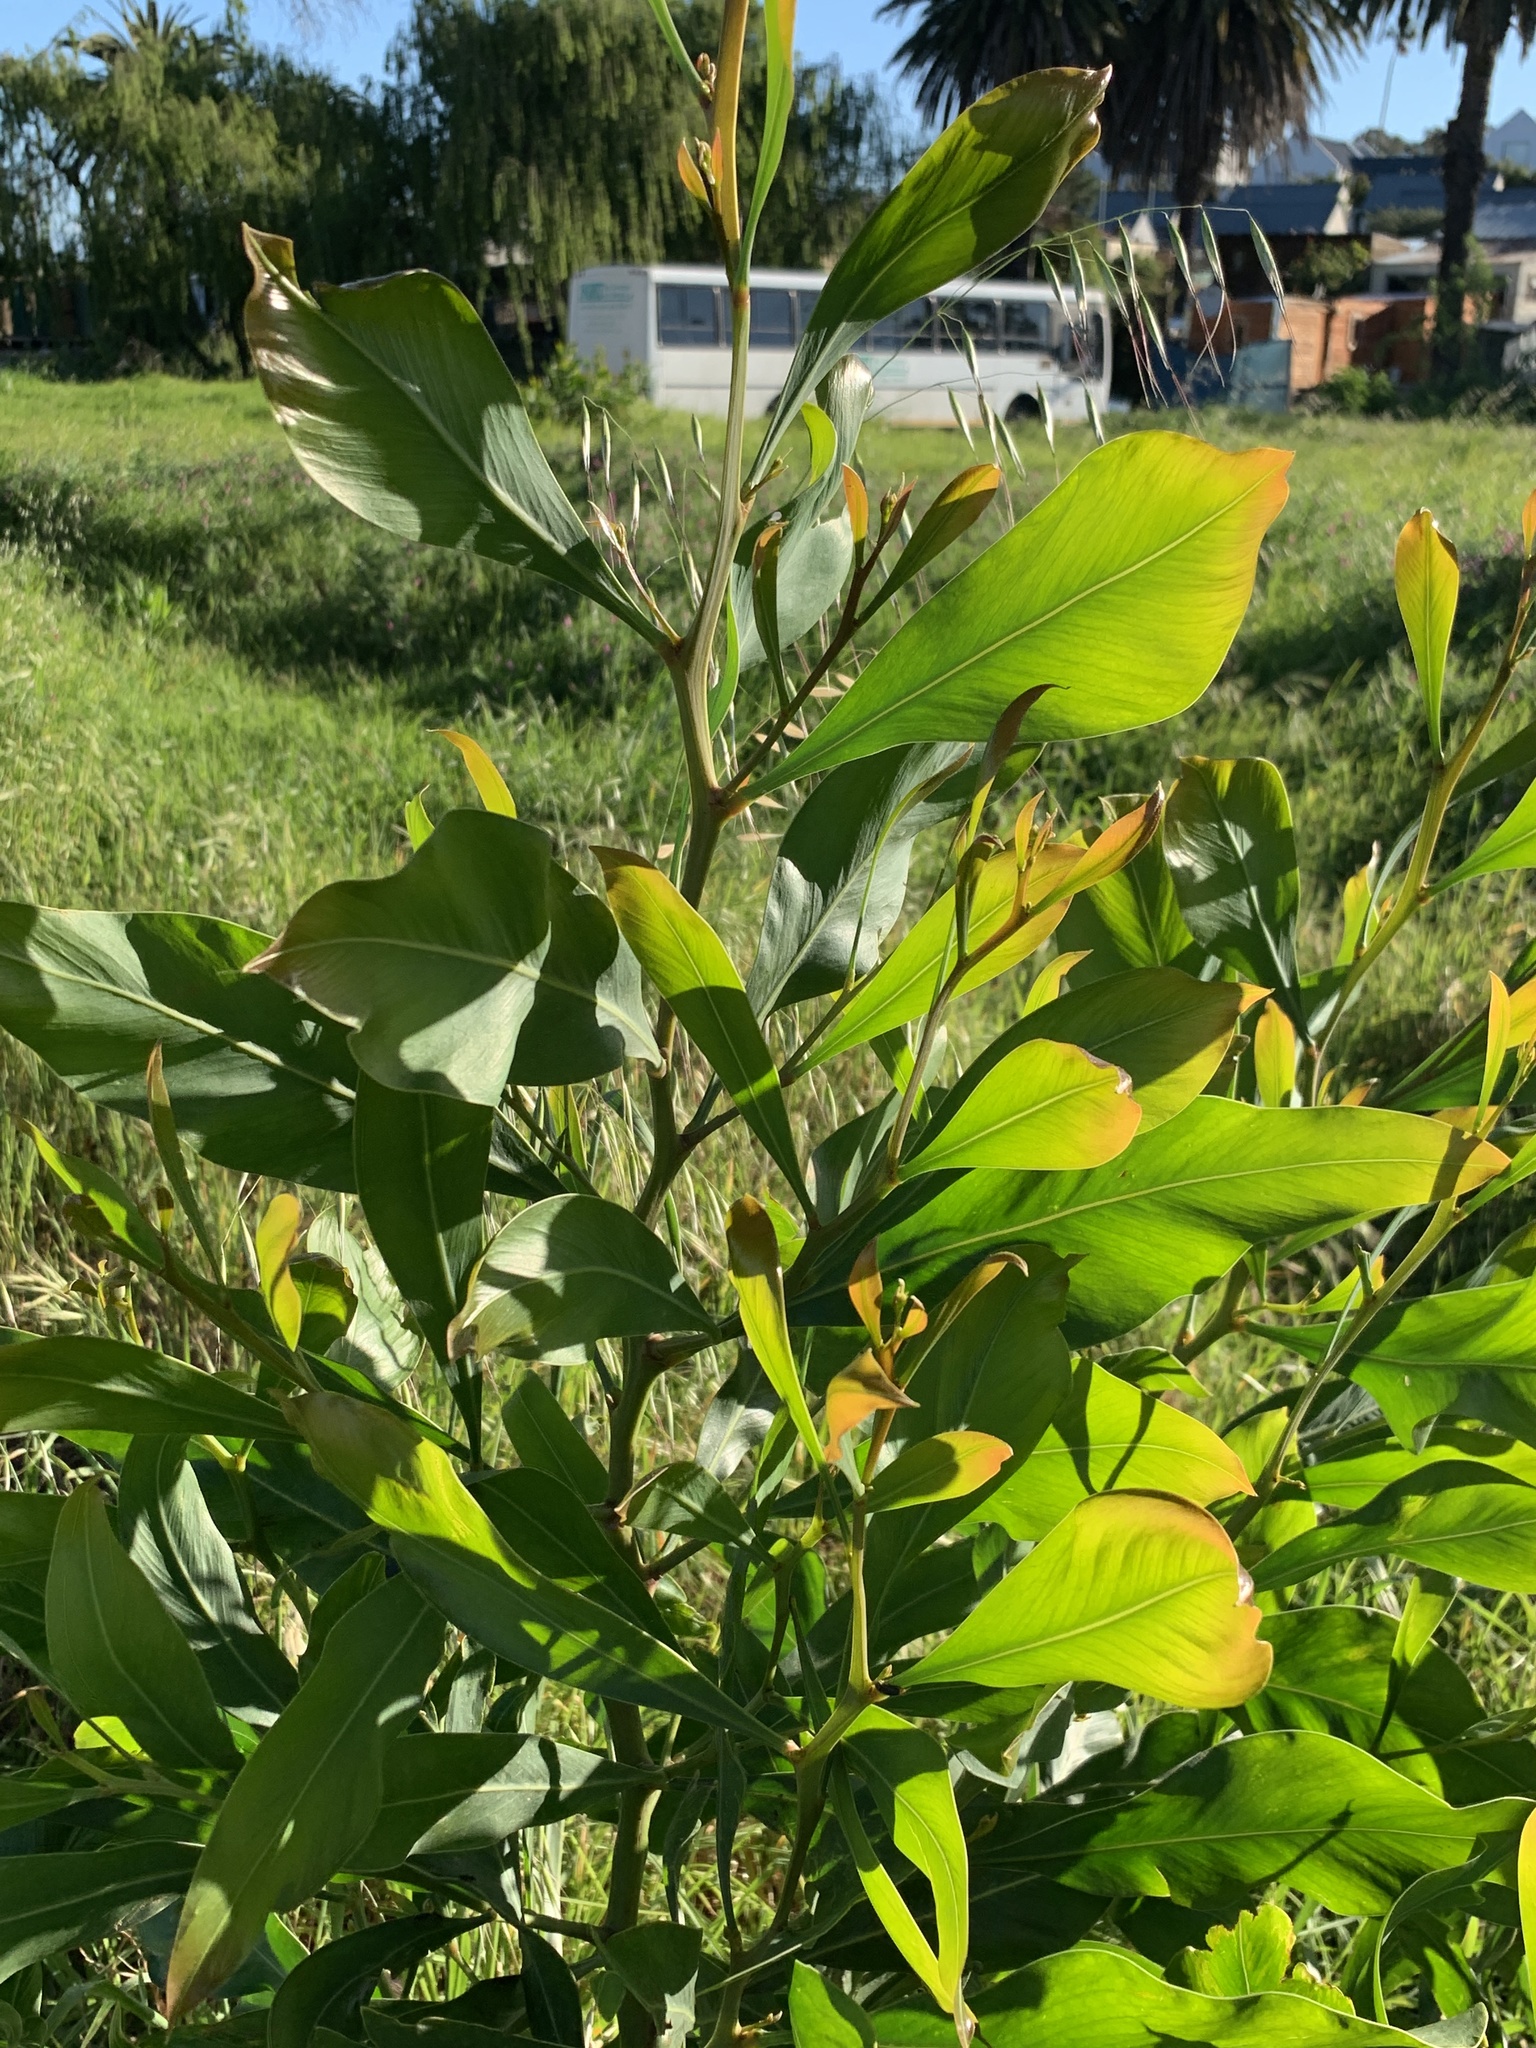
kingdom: Plantae
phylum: Tracheophyta
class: Magnoliopsida
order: Fabales
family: Fabaceae
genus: Acacia
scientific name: Acacia saligna
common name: Orange wattle
